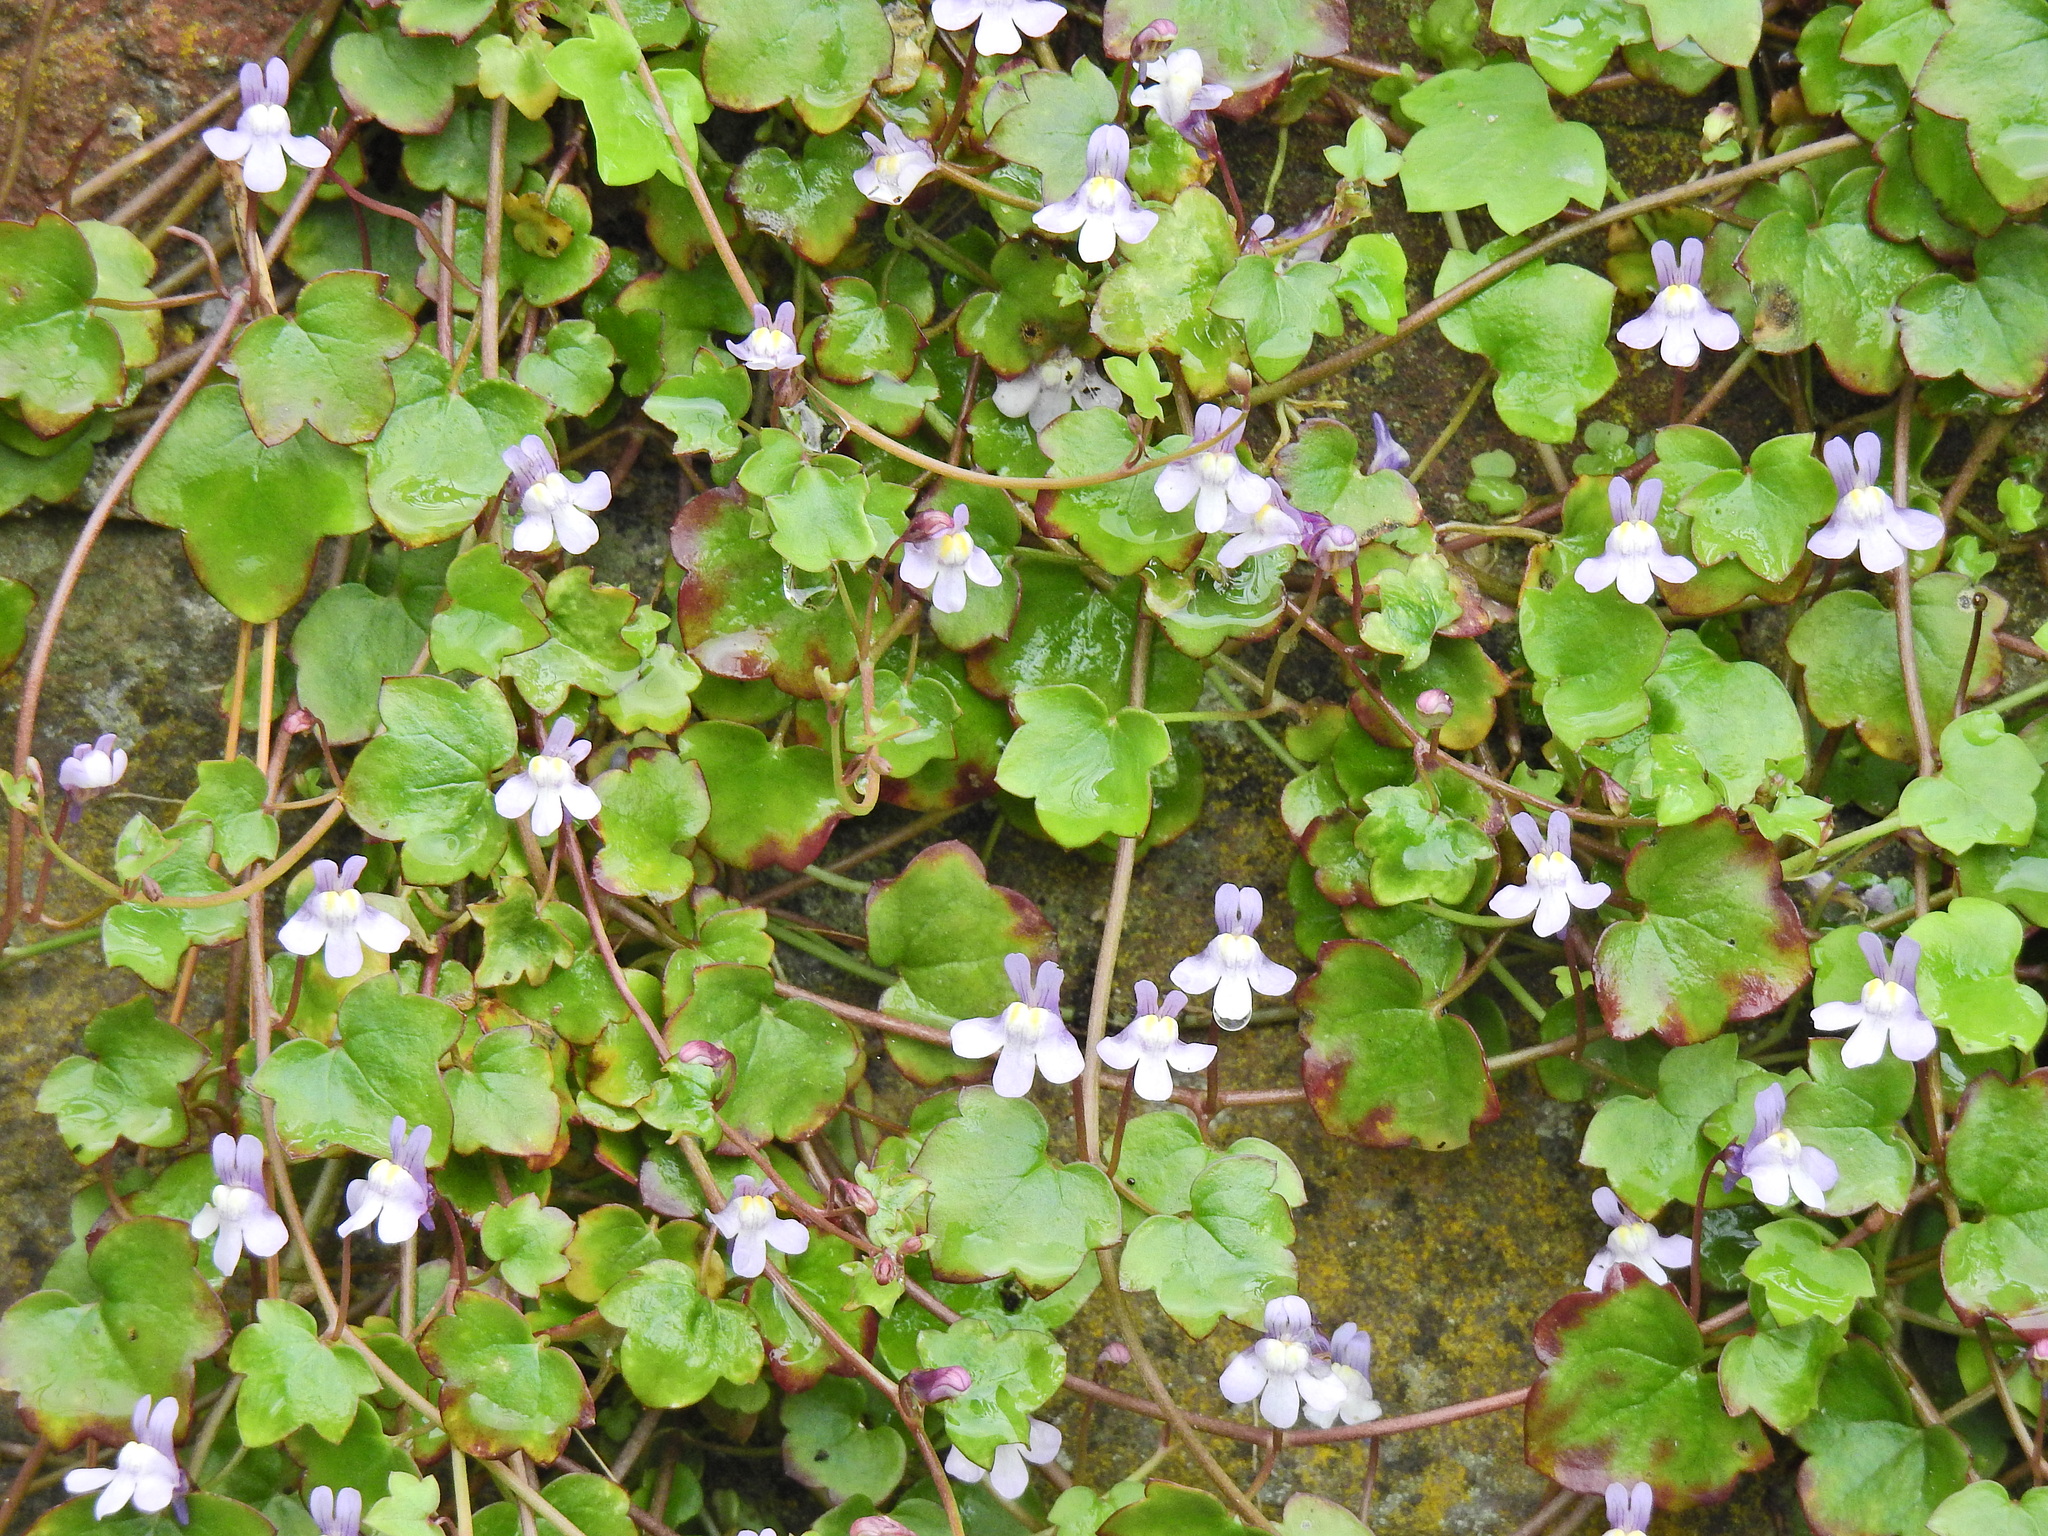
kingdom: Plantae
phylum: Tracheophyta
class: Magnoliopsida
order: Lamiales
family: Plantaginaceae
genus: Cymbalaria
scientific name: Cymbalaria muralis
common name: Ivy-leaved toadflax
